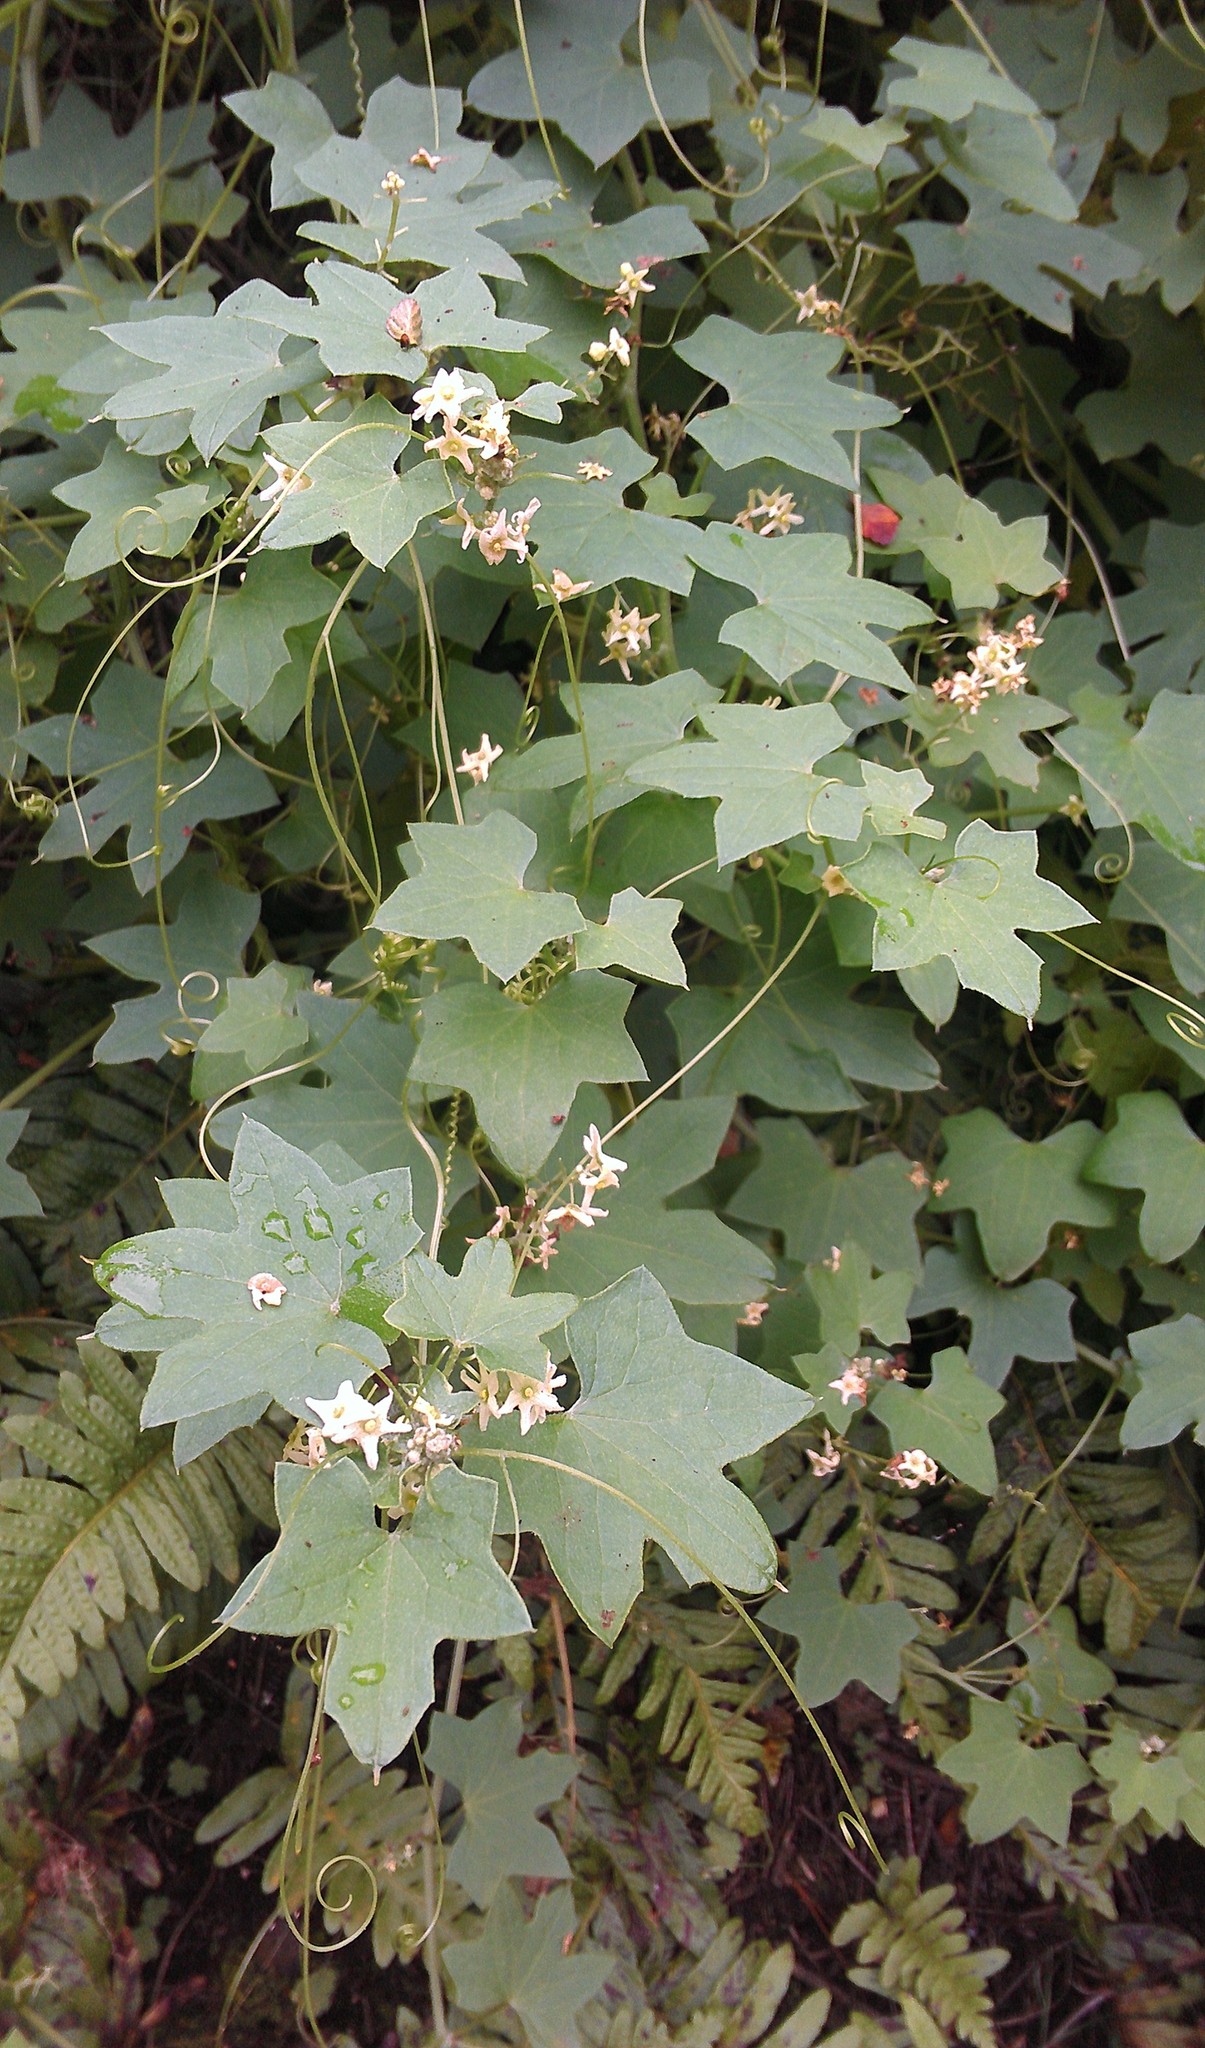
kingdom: Plantae
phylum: Tracheophyta
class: Magnoliopsida
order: Cucurbitales
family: Cucurbitaceae
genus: Marah
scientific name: Marah fabacea
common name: California manroot
